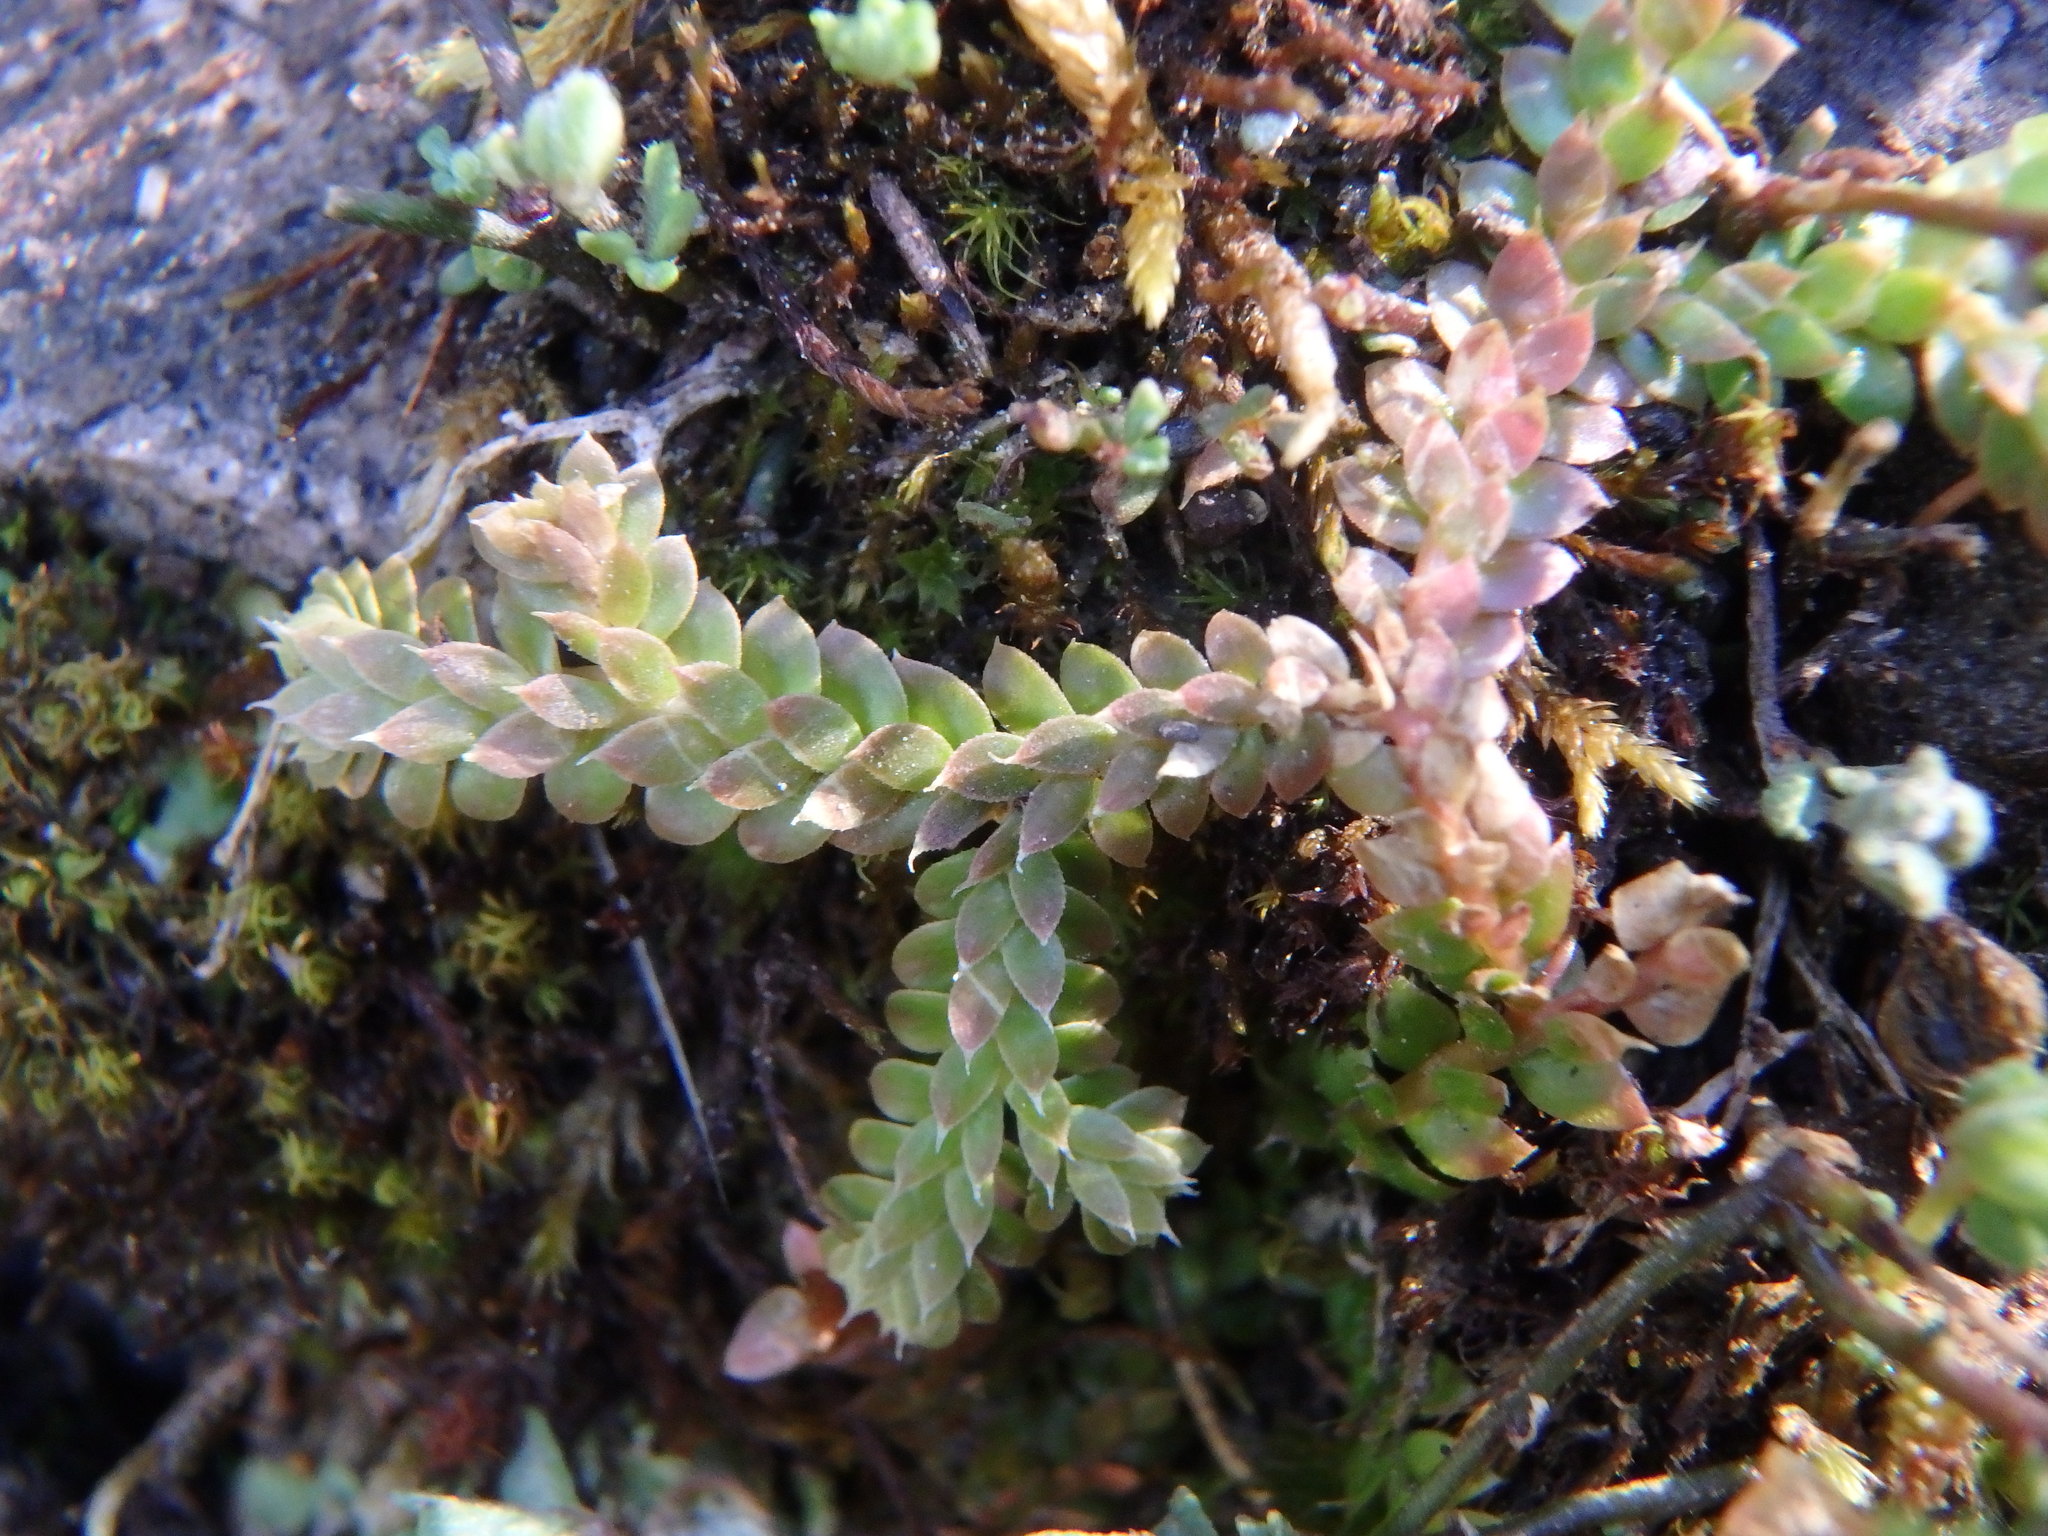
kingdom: Plantae
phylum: Tracheophyta
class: Lycopodiopsida
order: Selaginellales
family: Selaginellaceae
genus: Selaginella
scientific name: Selaginella denticulata
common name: Toothed-leaved clubmoss
